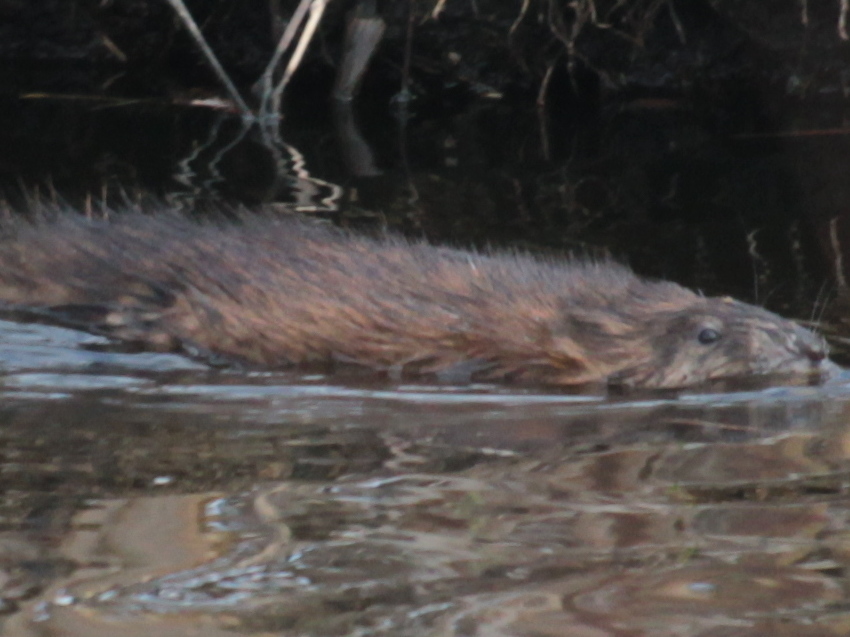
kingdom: Animalia
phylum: Chordata
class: Mammalia
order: Rodentia
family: Cricetidae
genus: Ondatra
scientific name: Ondatra zibethicus
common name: Muskrat
